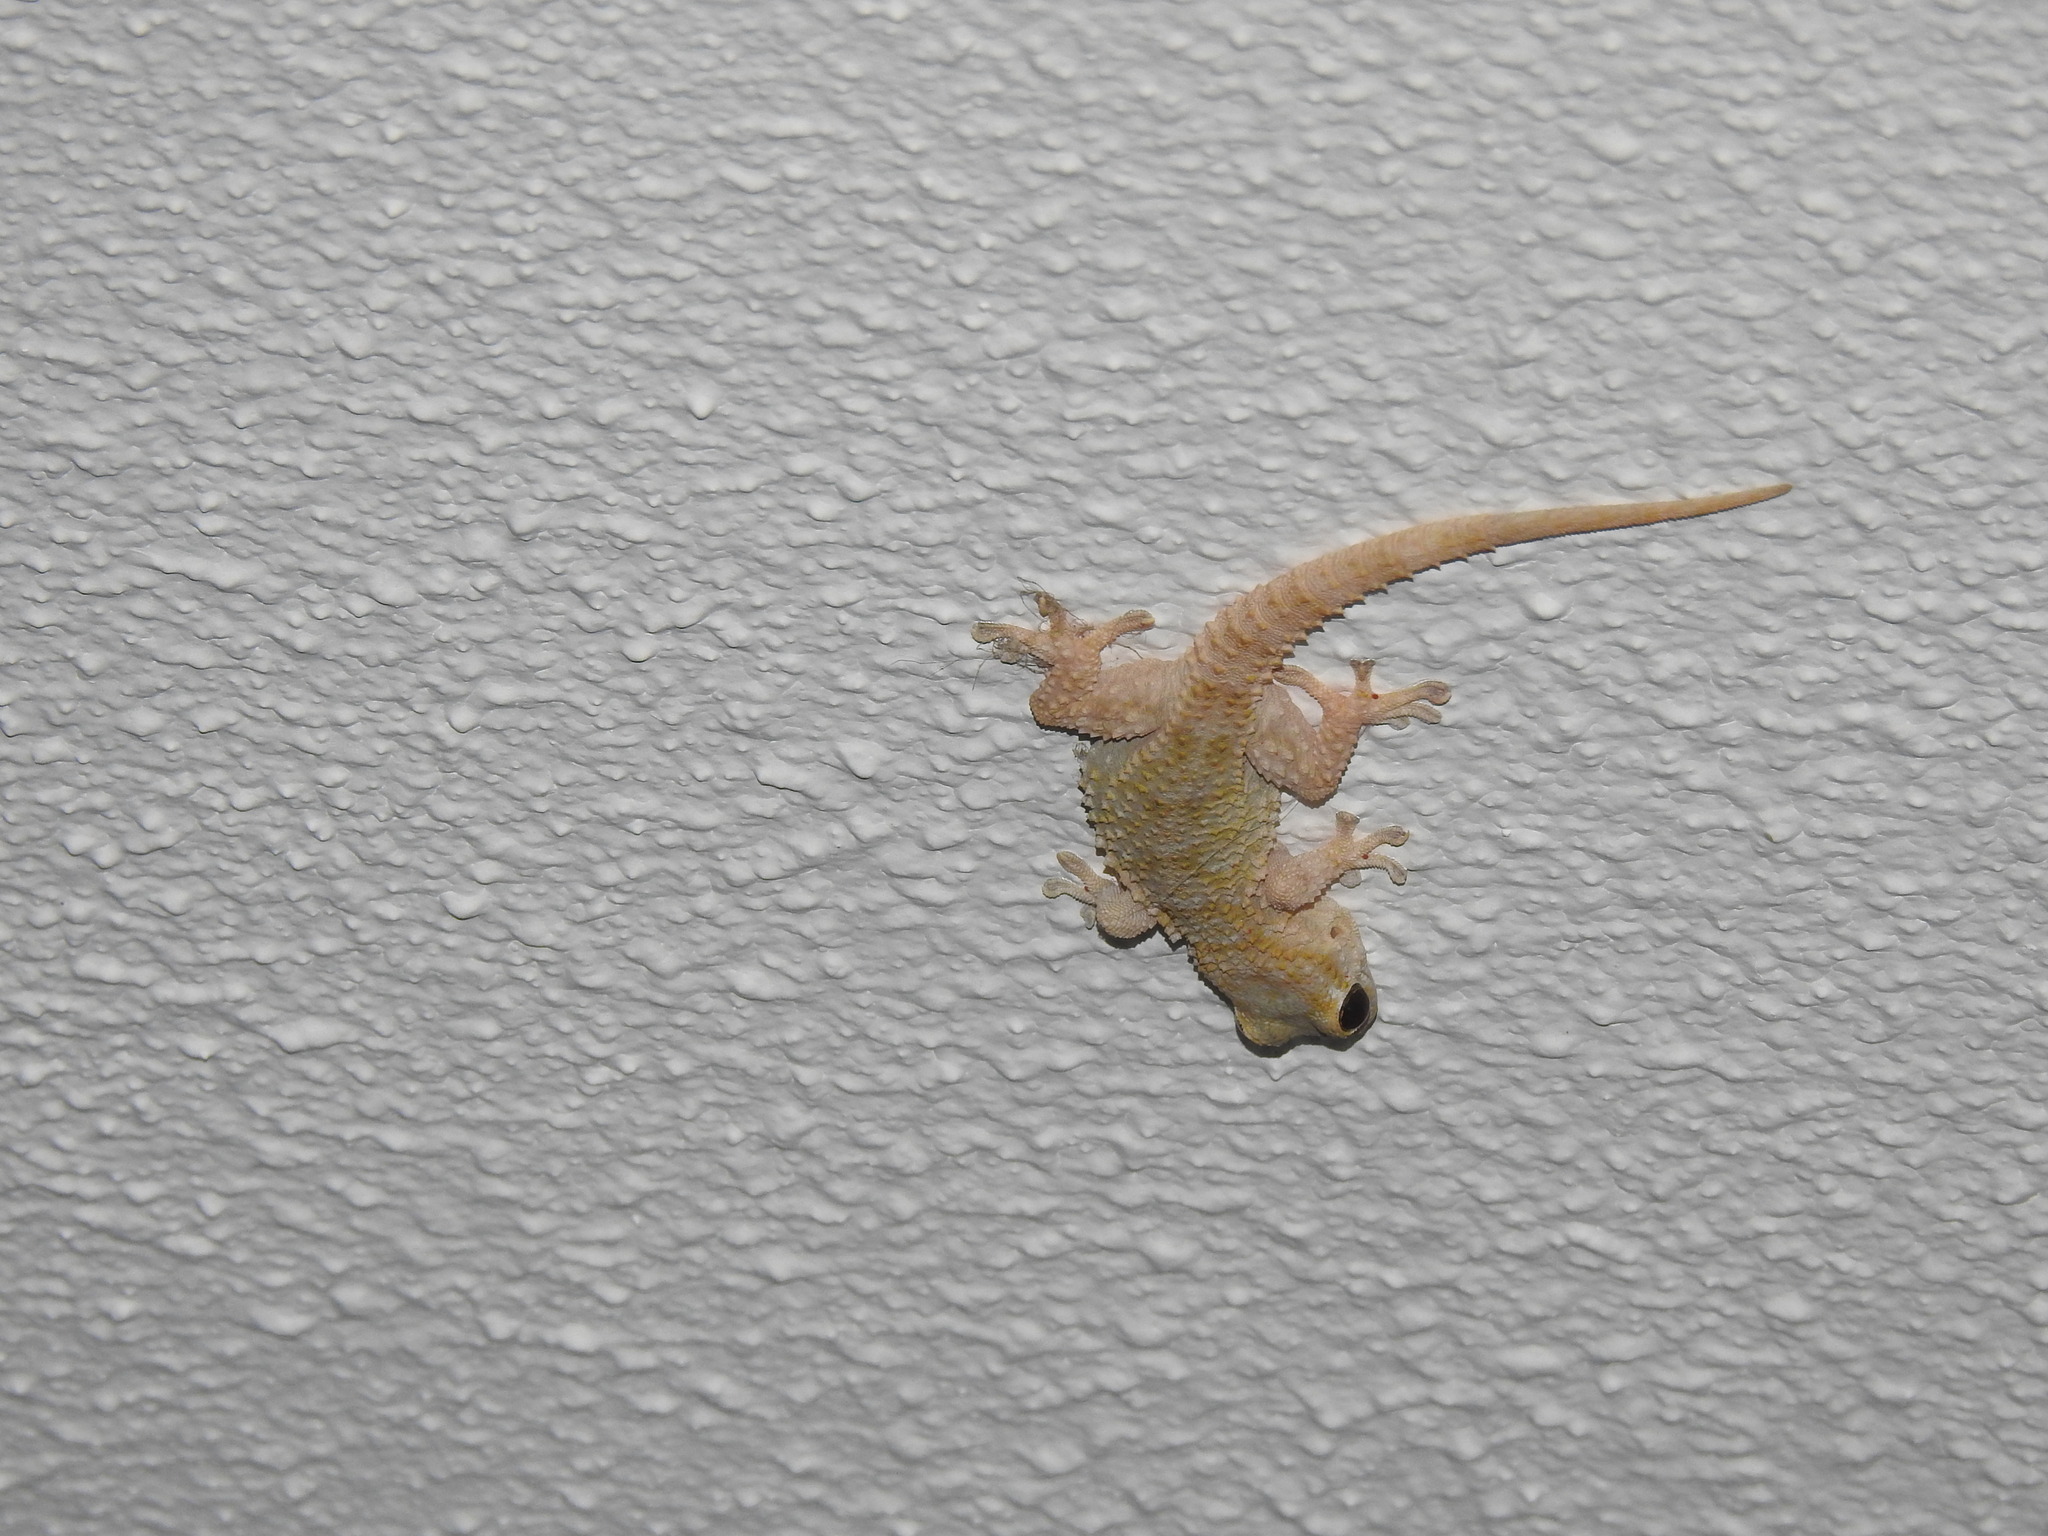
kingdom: Animalia
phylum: Chordata
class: Squamata
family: Phyllodactylidae
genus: Tarentola
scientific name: Tarentola mauritanica
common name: Moorish gecko
